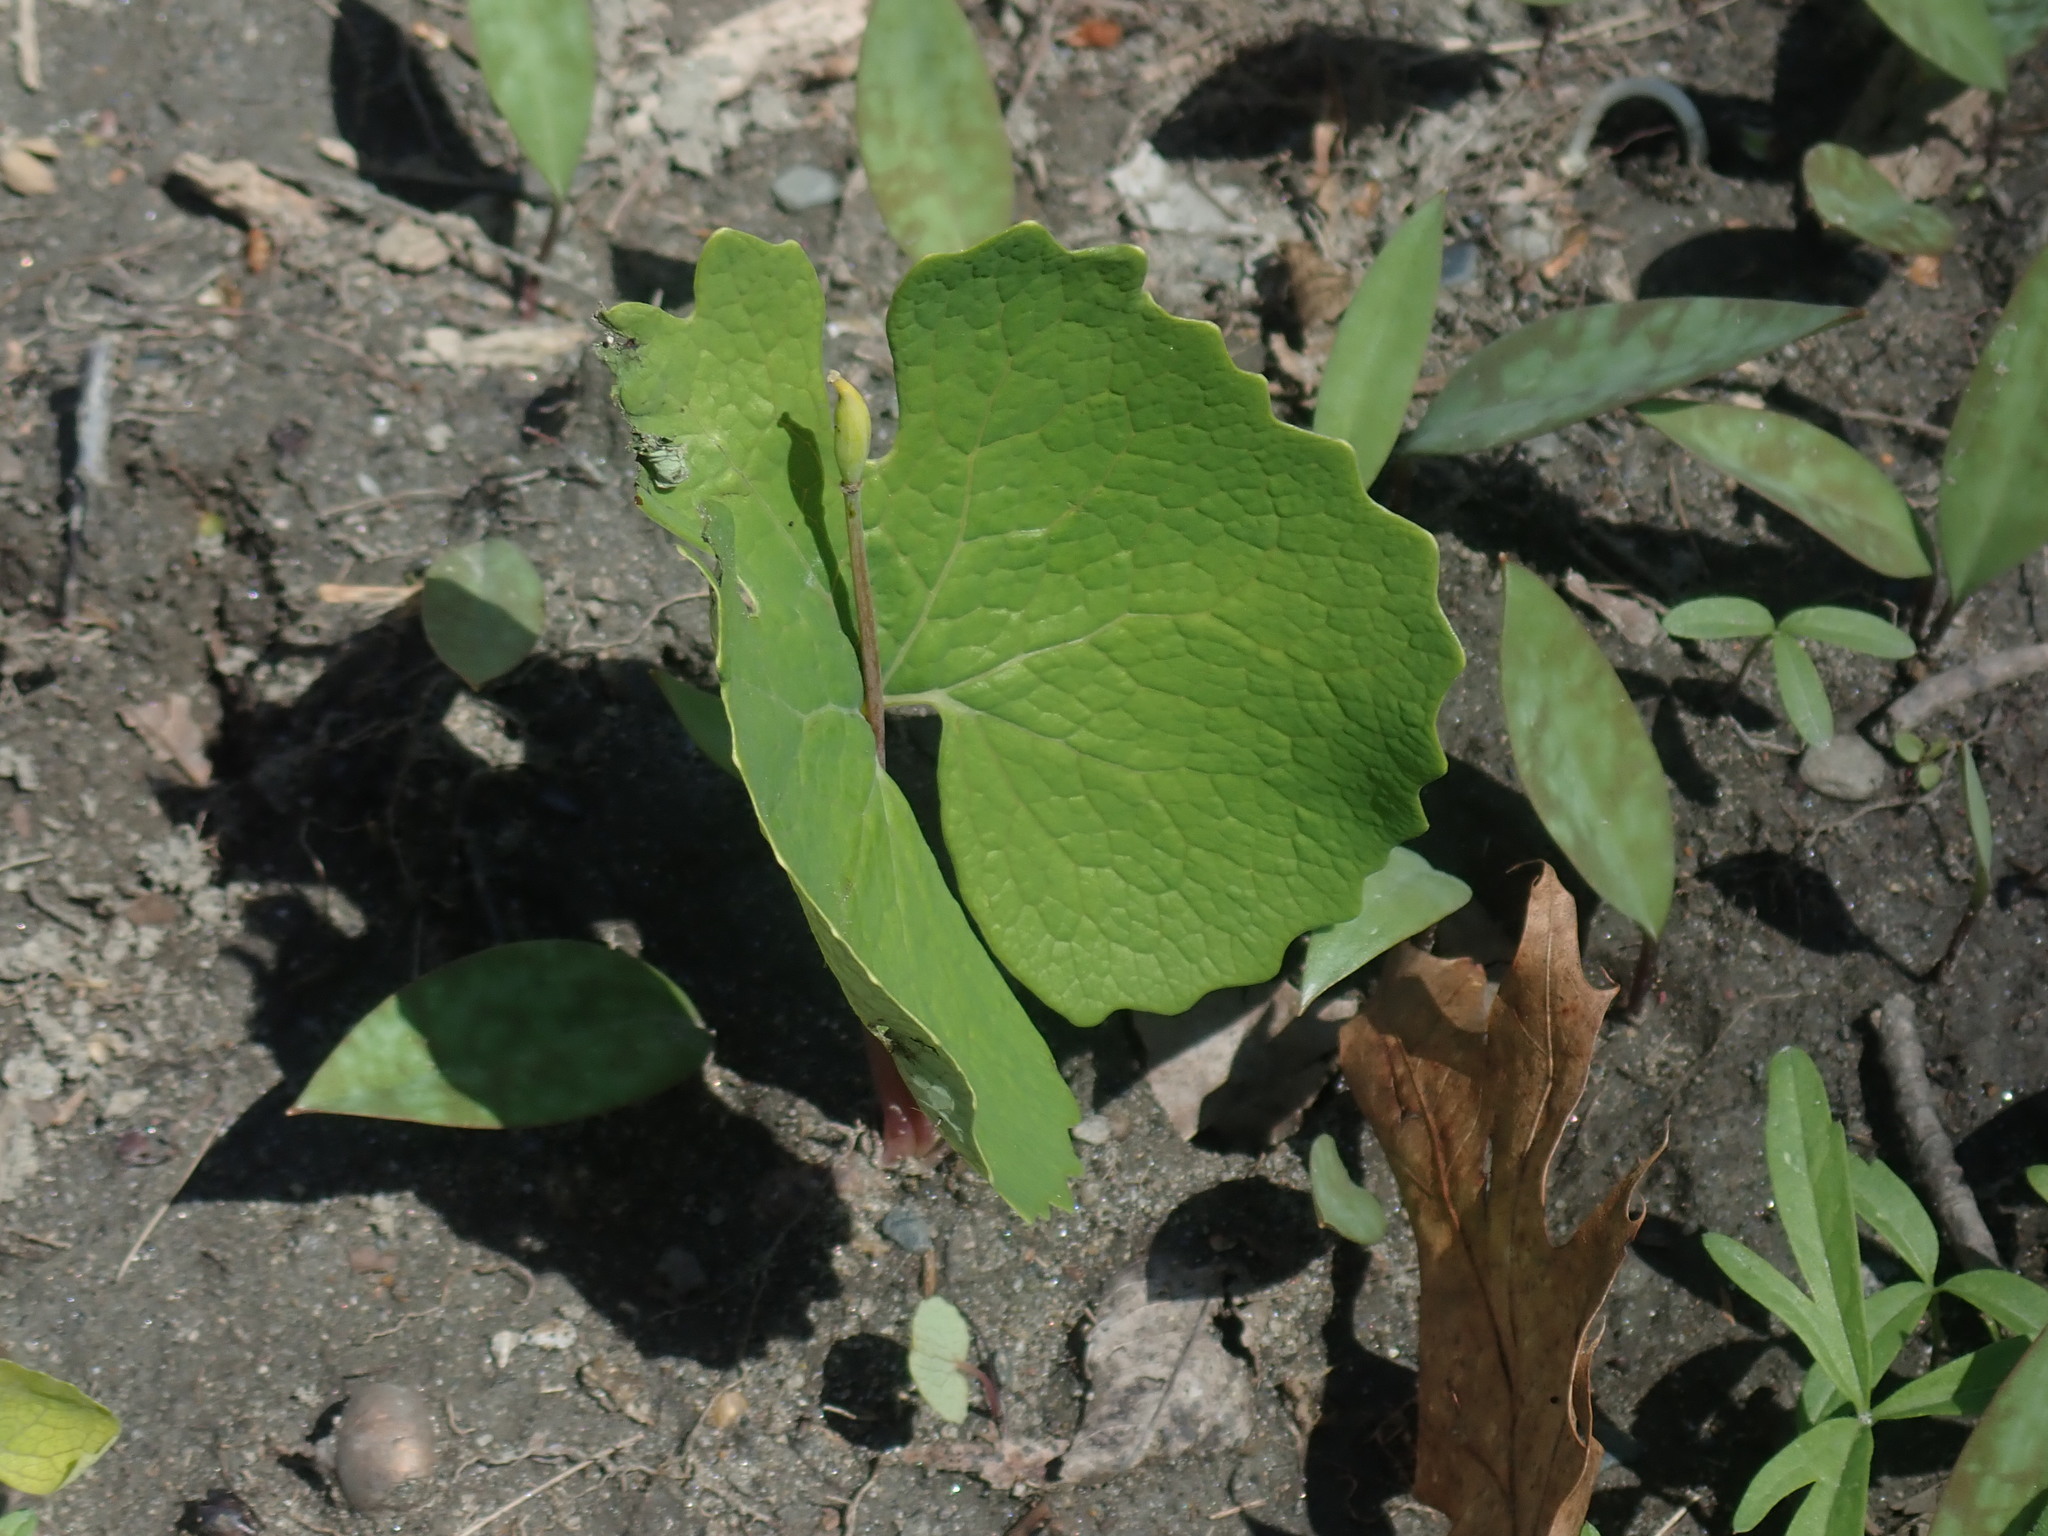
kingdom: Plantae
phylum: Tracheophyta
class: Magnoliopsida
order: Ranunculales
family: Papaveraceae
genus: Sanguinaria
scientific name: Sanguinaria canadensis
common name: Bloodroot
